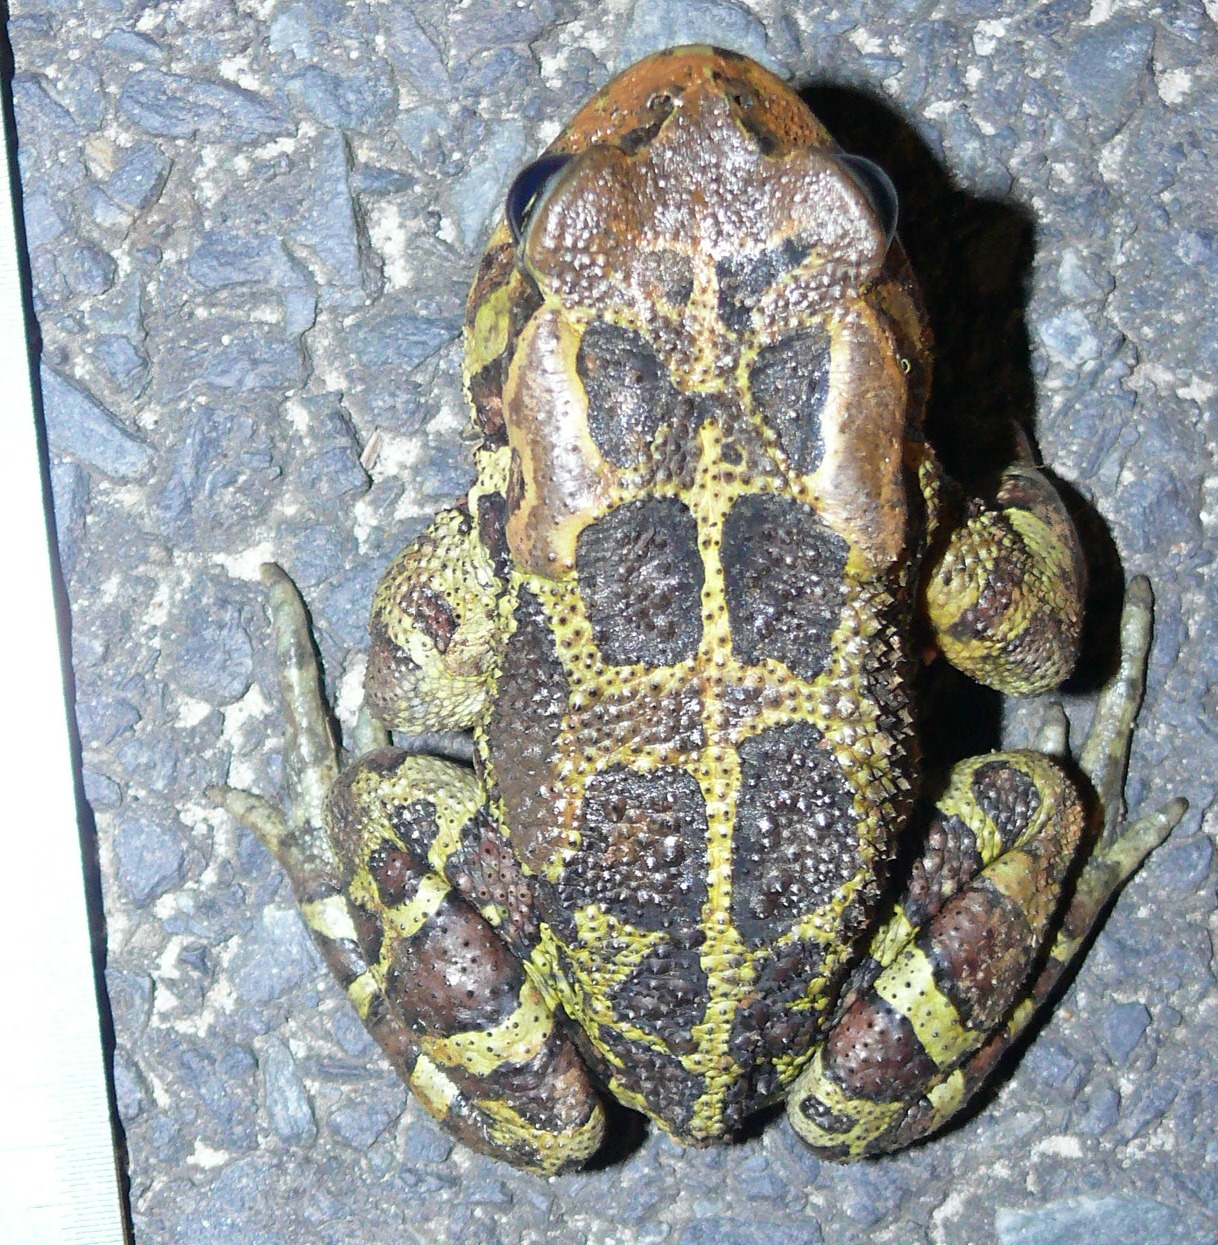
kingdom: Animalia
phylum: Chordata
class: Amphibia
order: Anura
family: Bufonidae
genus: Sclerophrys
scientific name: Sclerophrys pantherina
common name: Panther toad
